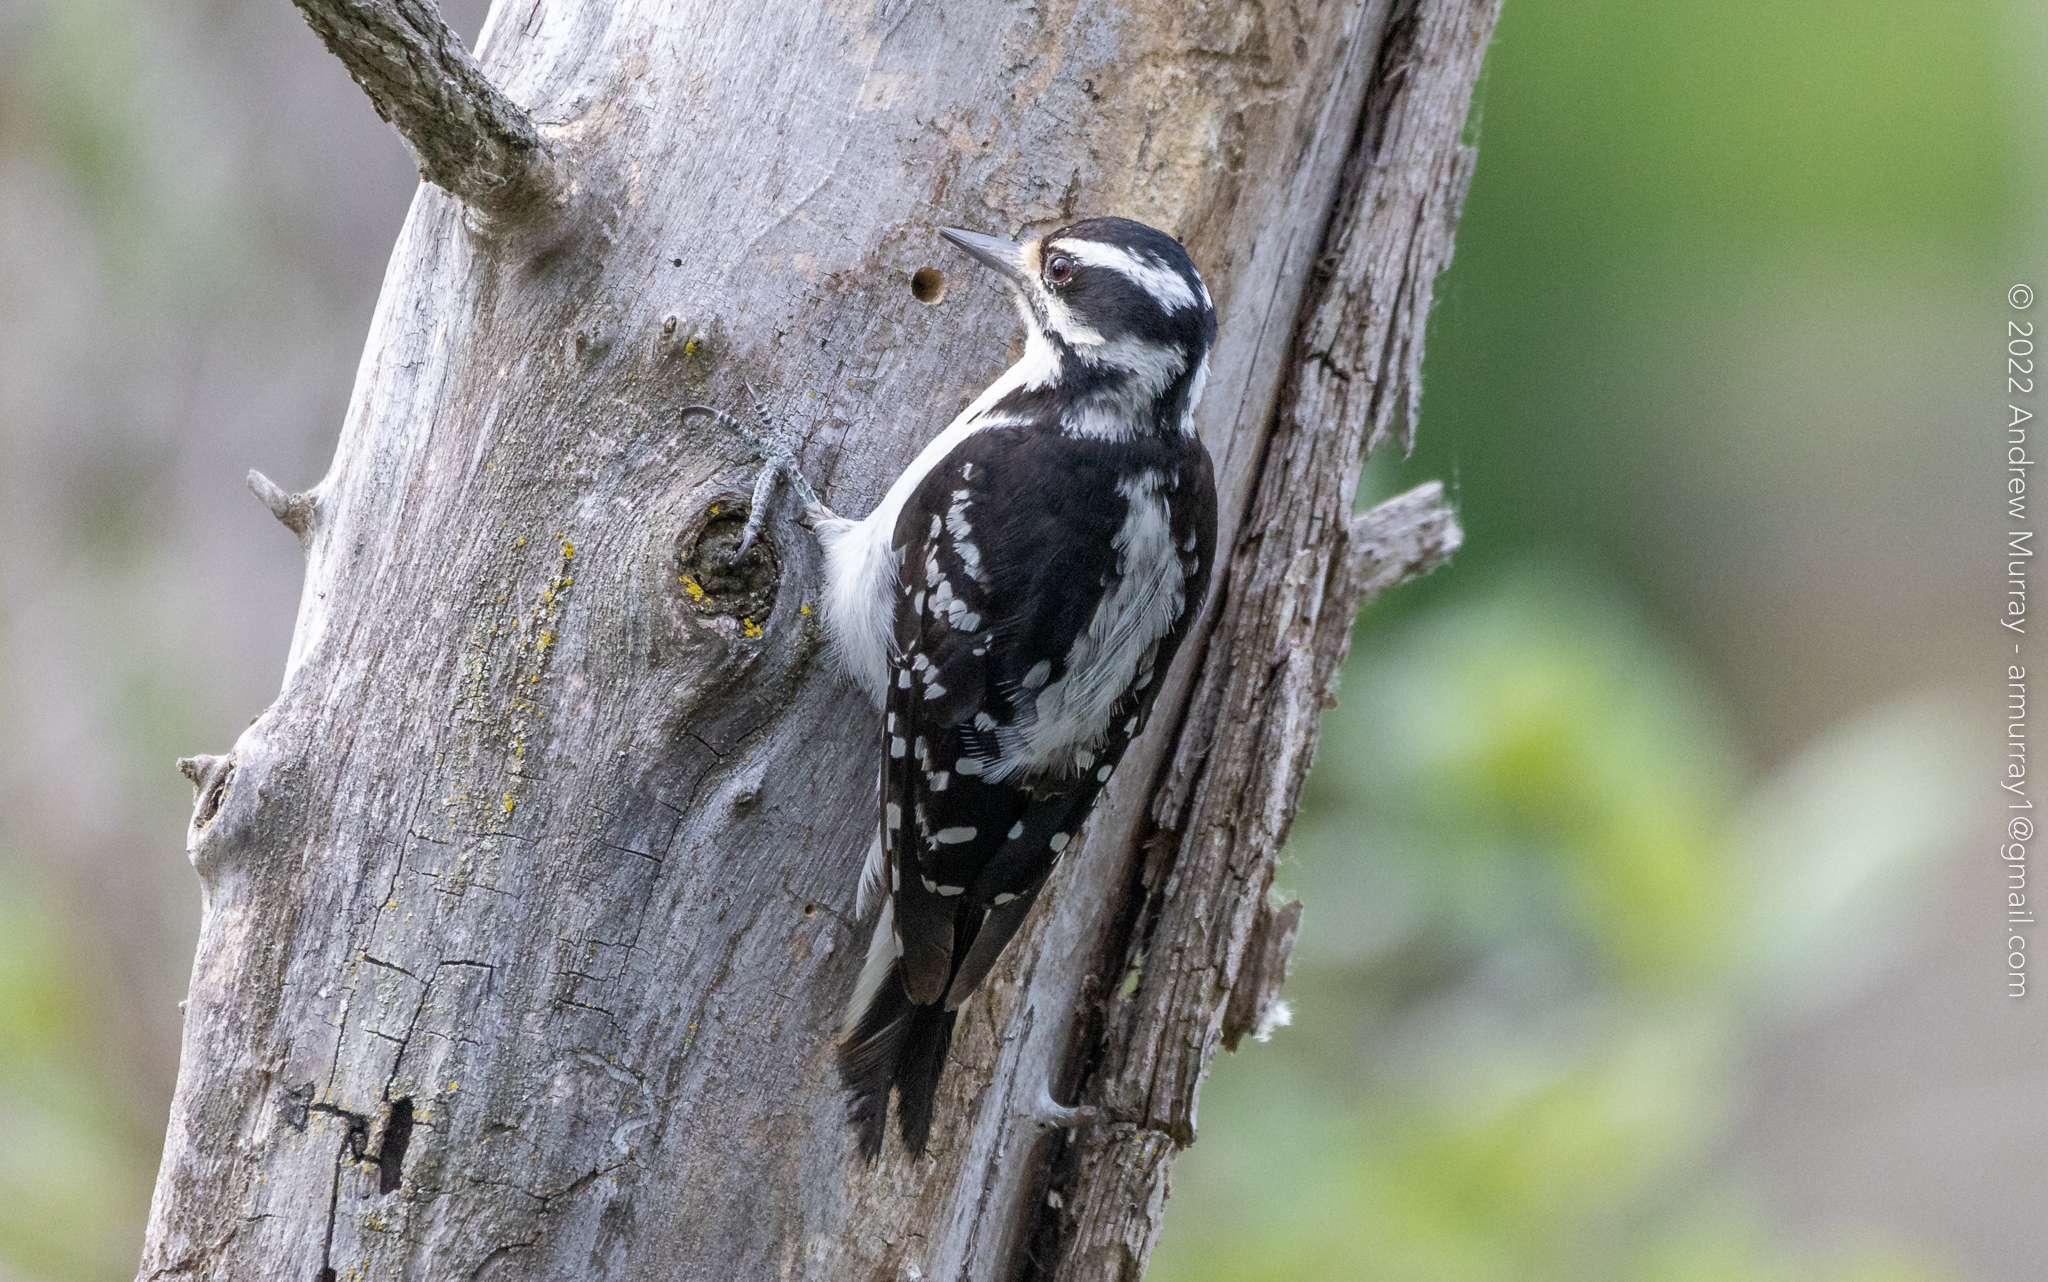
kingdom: Animalia
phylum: Chordata
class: Aves
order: Piciformes
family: Picidae
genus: Leuconotopicus
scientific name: Leuconotopicus villosus
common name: Hairy woodpecker
